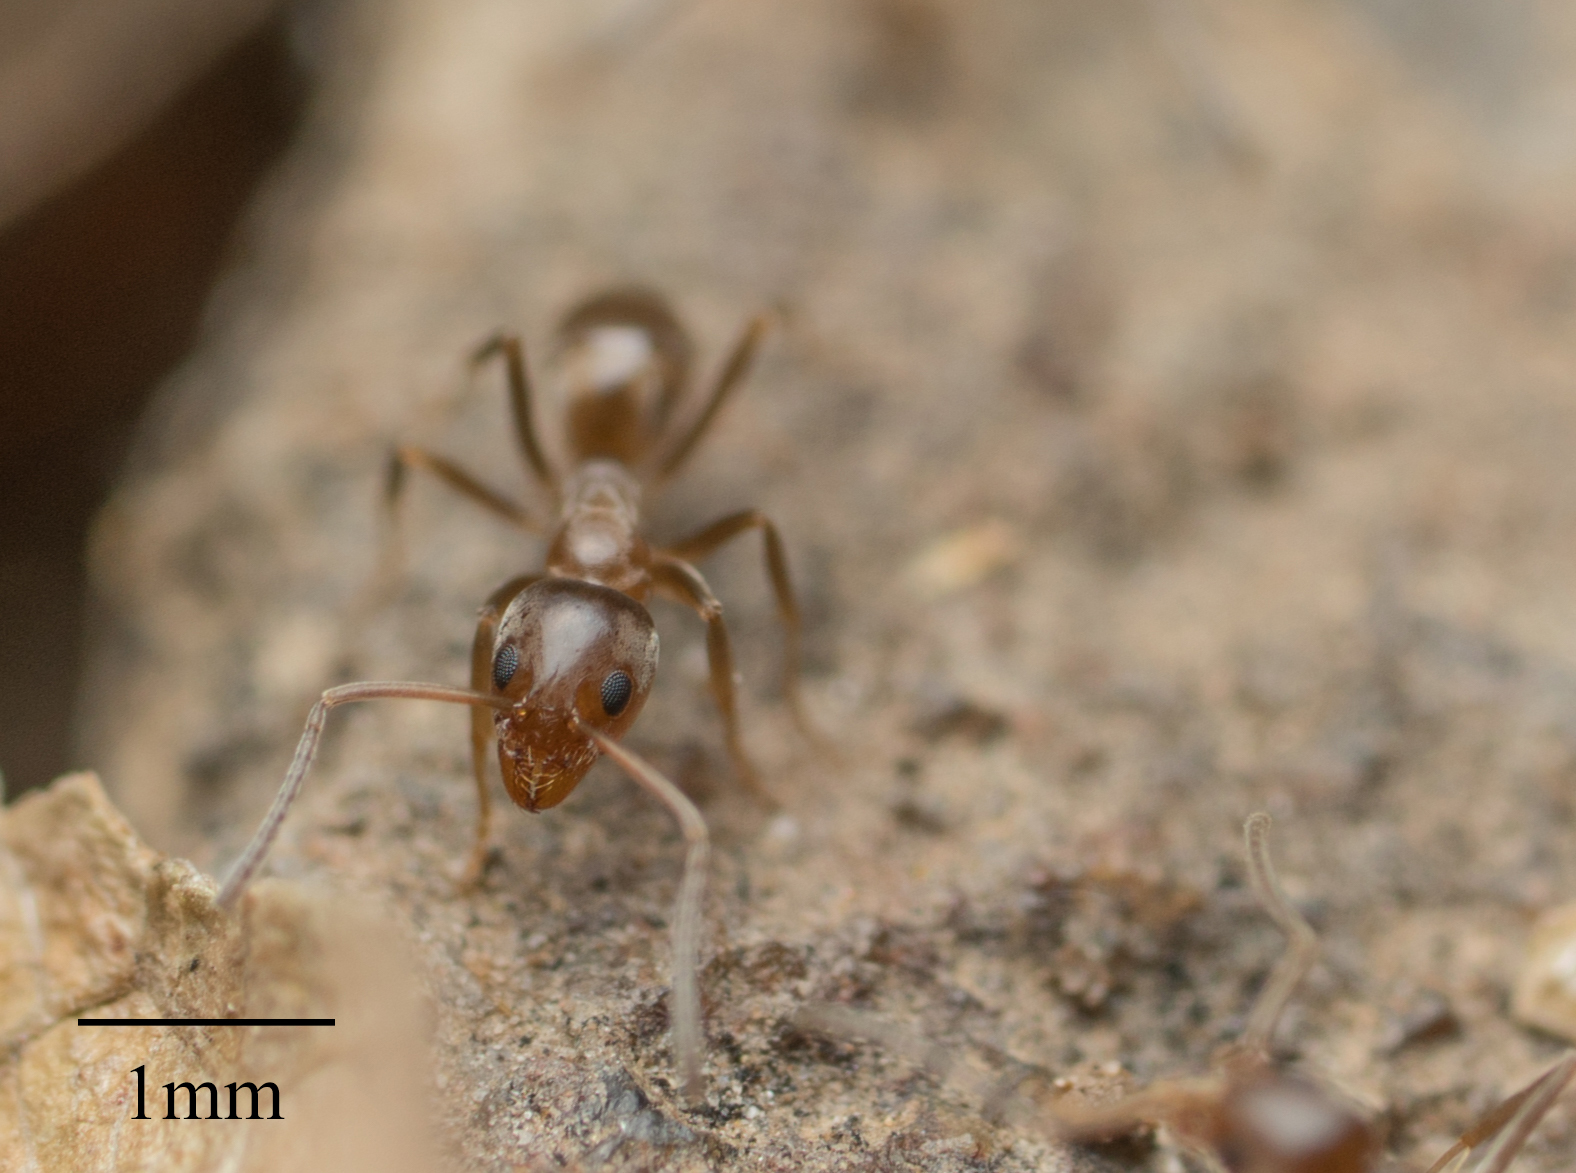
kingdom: Animalia
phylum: Arthropoda
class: Insecta
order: Hymenoptera
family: Formicidae
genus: Linepithema
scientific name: Linepithema humile
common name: Argentine ant
